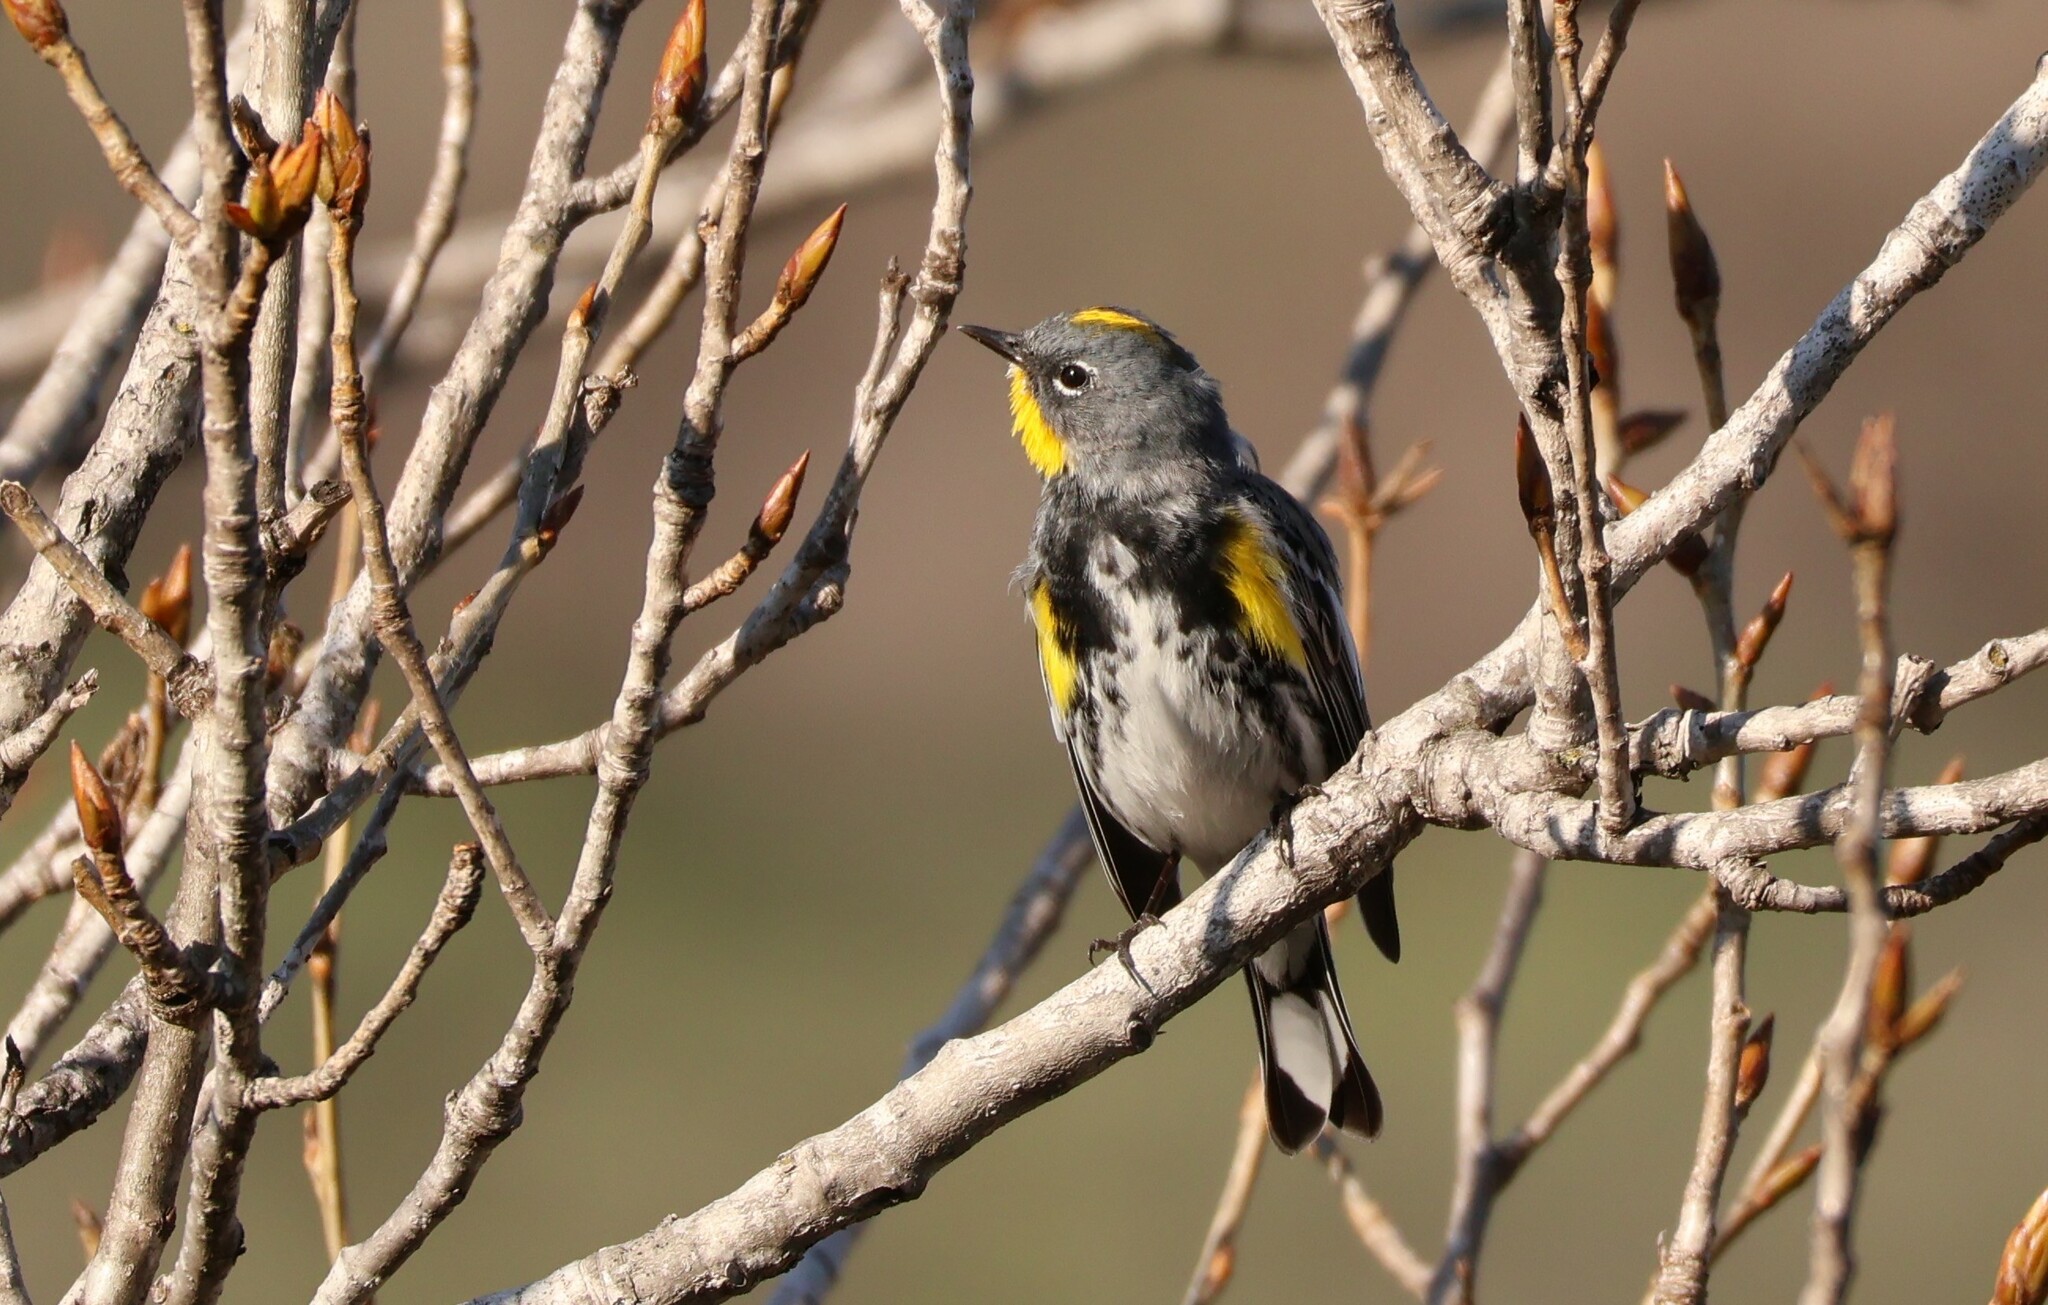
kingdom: Animalia
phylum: Chordata
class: Aves
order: Passeriformes
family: Parulidae
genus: Setophaga
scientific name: Setophaga auduboni
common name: Audubon's warbler
